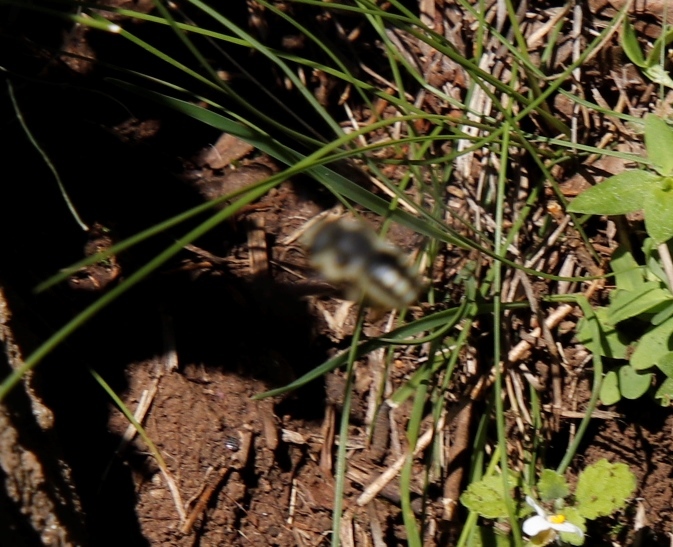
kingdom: Animalia
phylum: Arthropoda
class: Insecta
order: Hymenoptera
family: Megachilidae
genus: Pseudoanthidium
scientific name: Pseudoanthidium tuberculiferum
